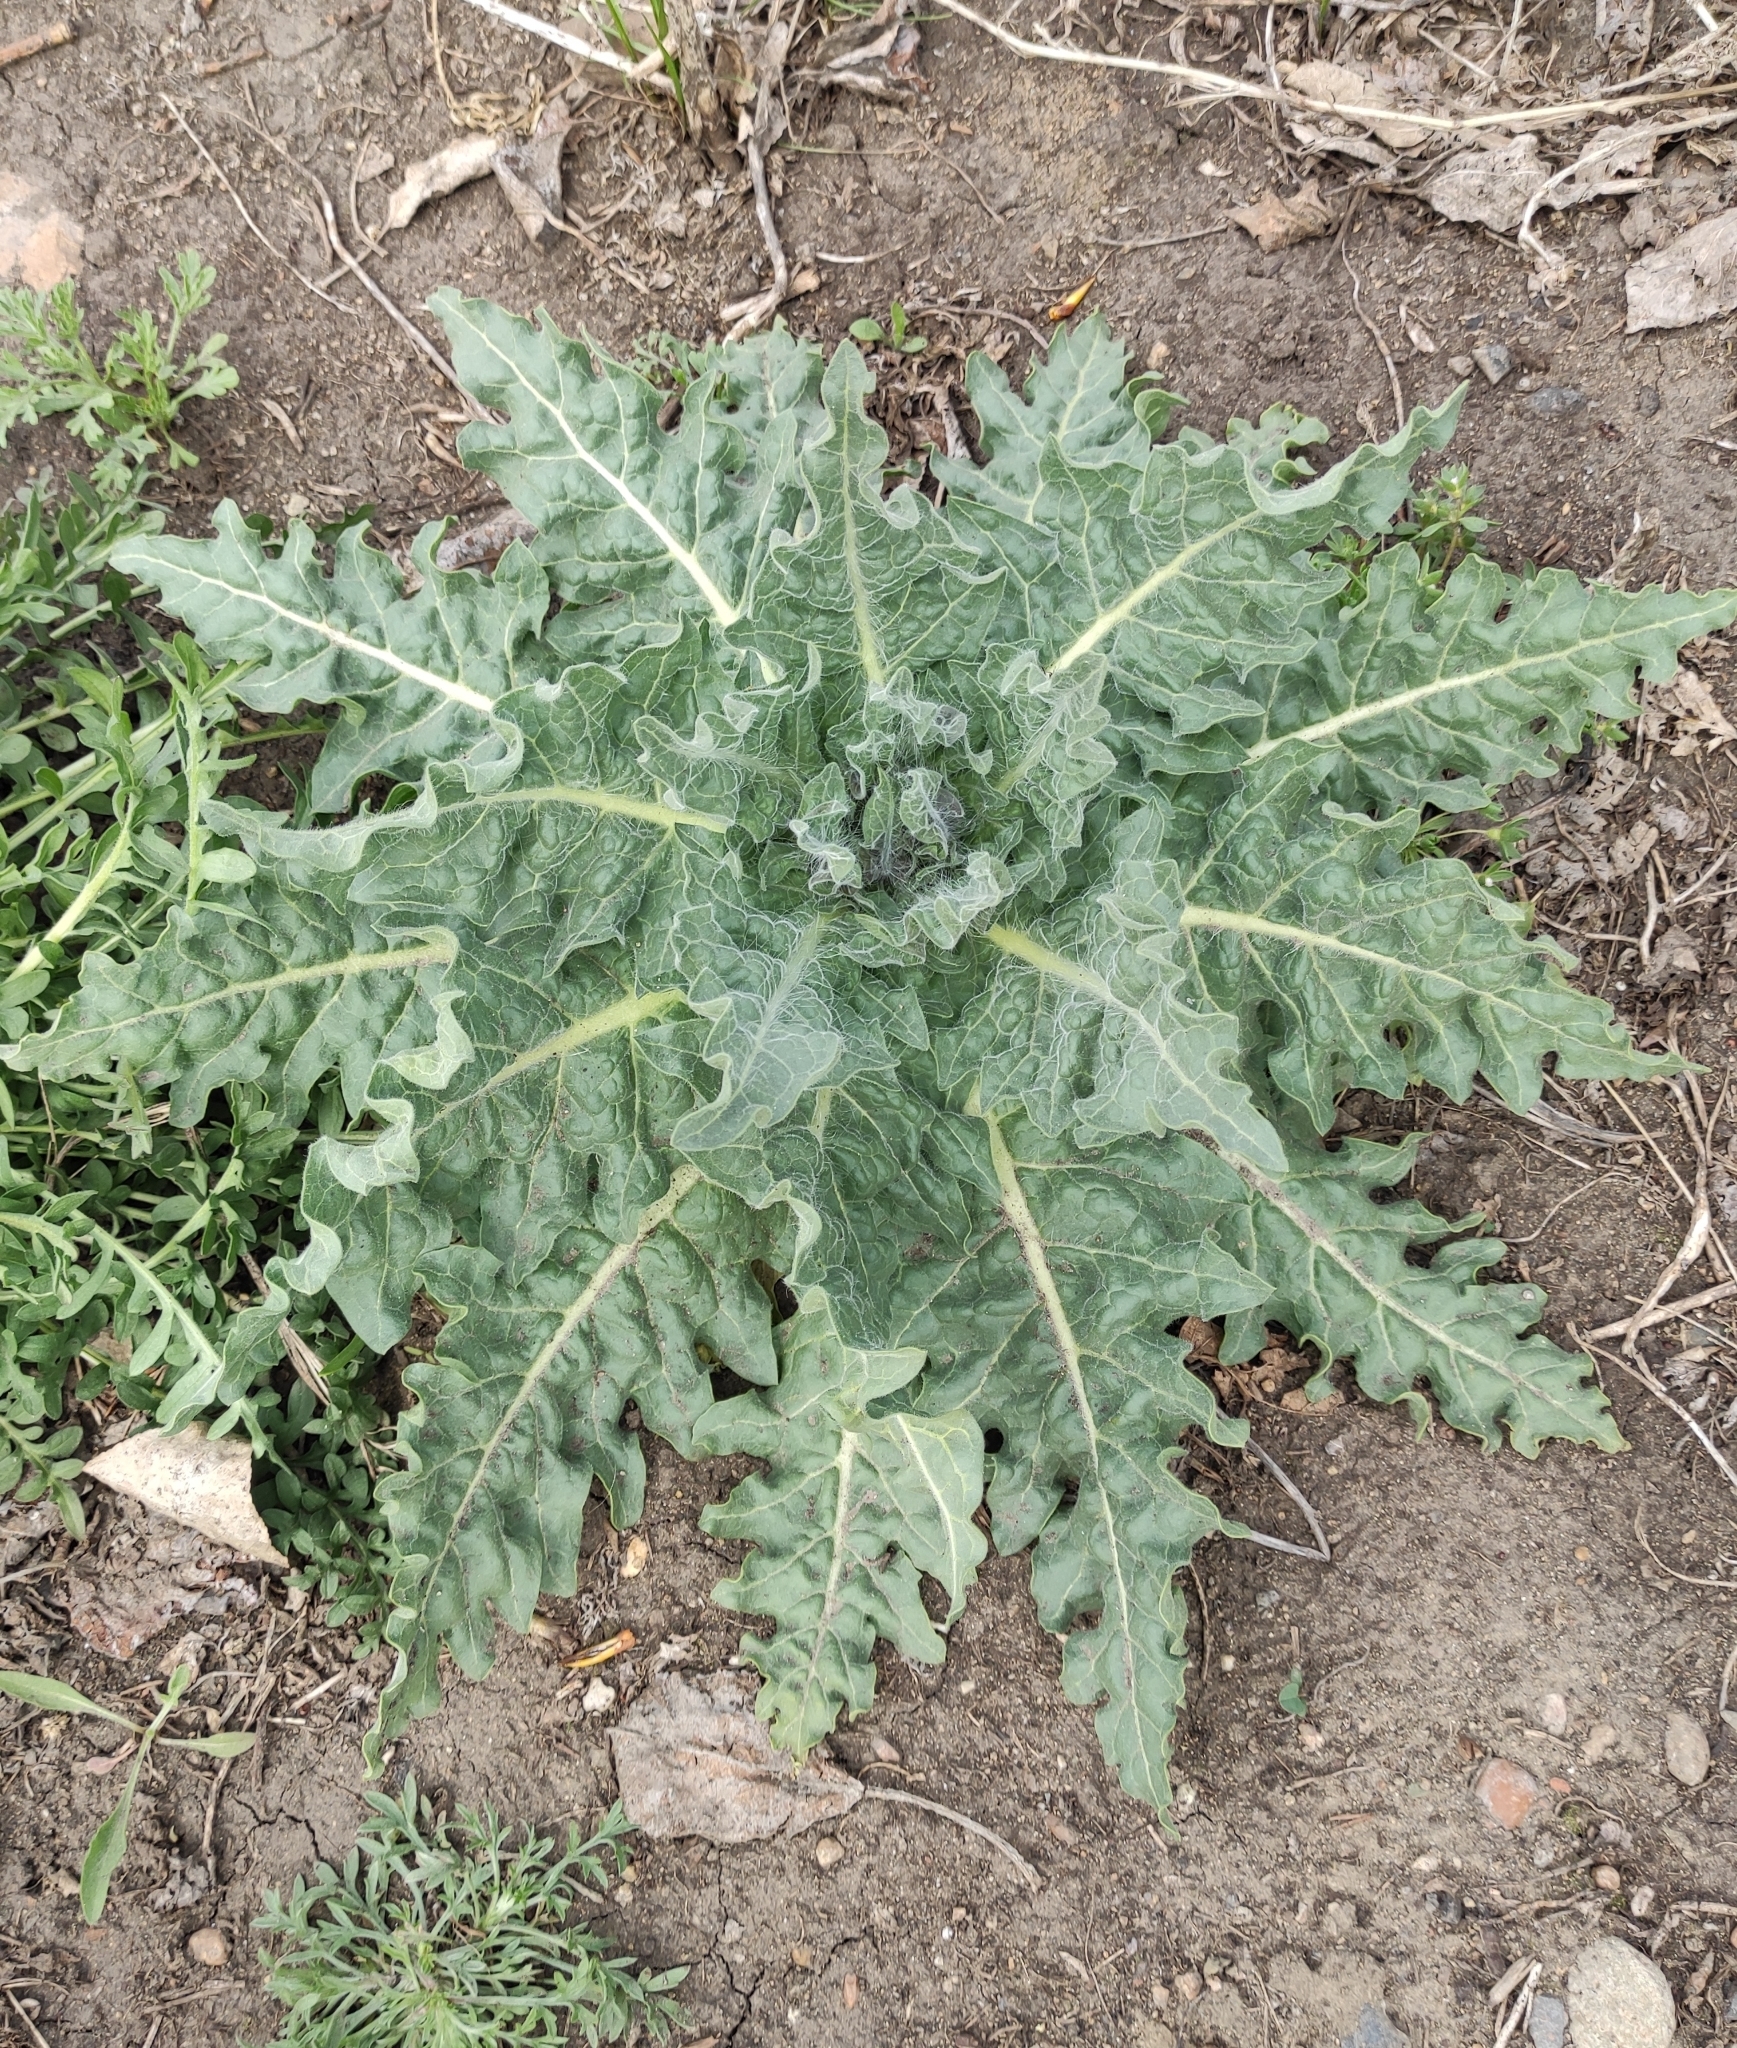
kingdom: Plantae
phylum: Tracheophyta
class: Magnoliopsida
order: Solanales
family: Solanaceae
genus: Hyoscyamus
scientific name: Hyoscyamus niger
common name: Henbane
